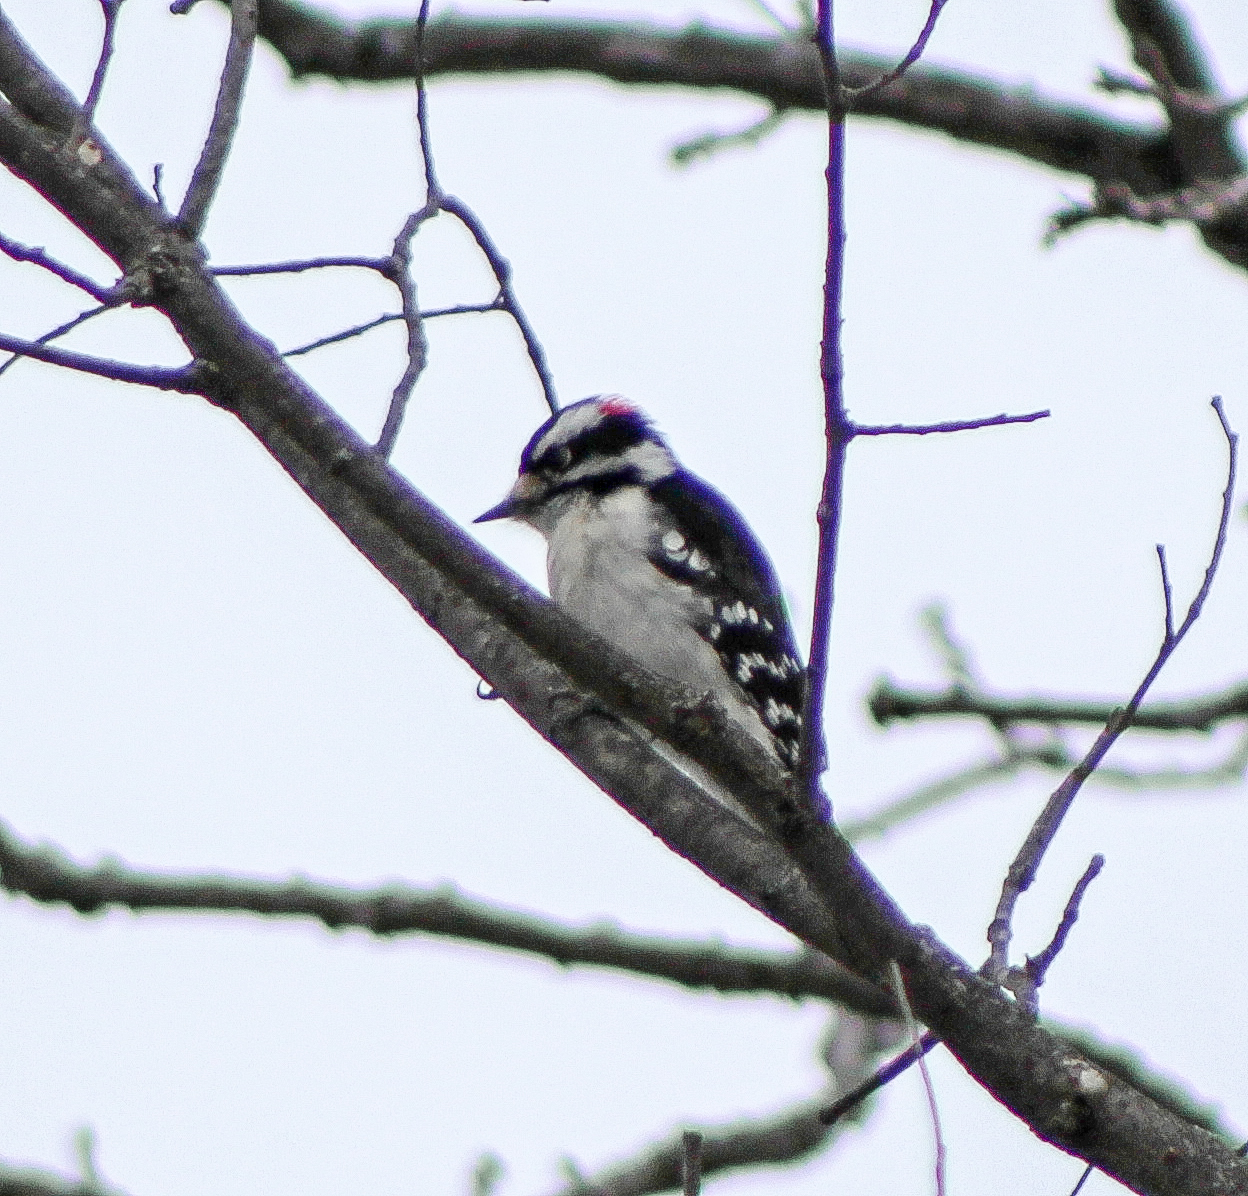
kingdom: Animalia
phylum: Chordata
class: Aves
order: Piciformes
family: Picidae
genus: Dryobates
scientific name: Dryobates pubescens
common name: Downy woodpecker
